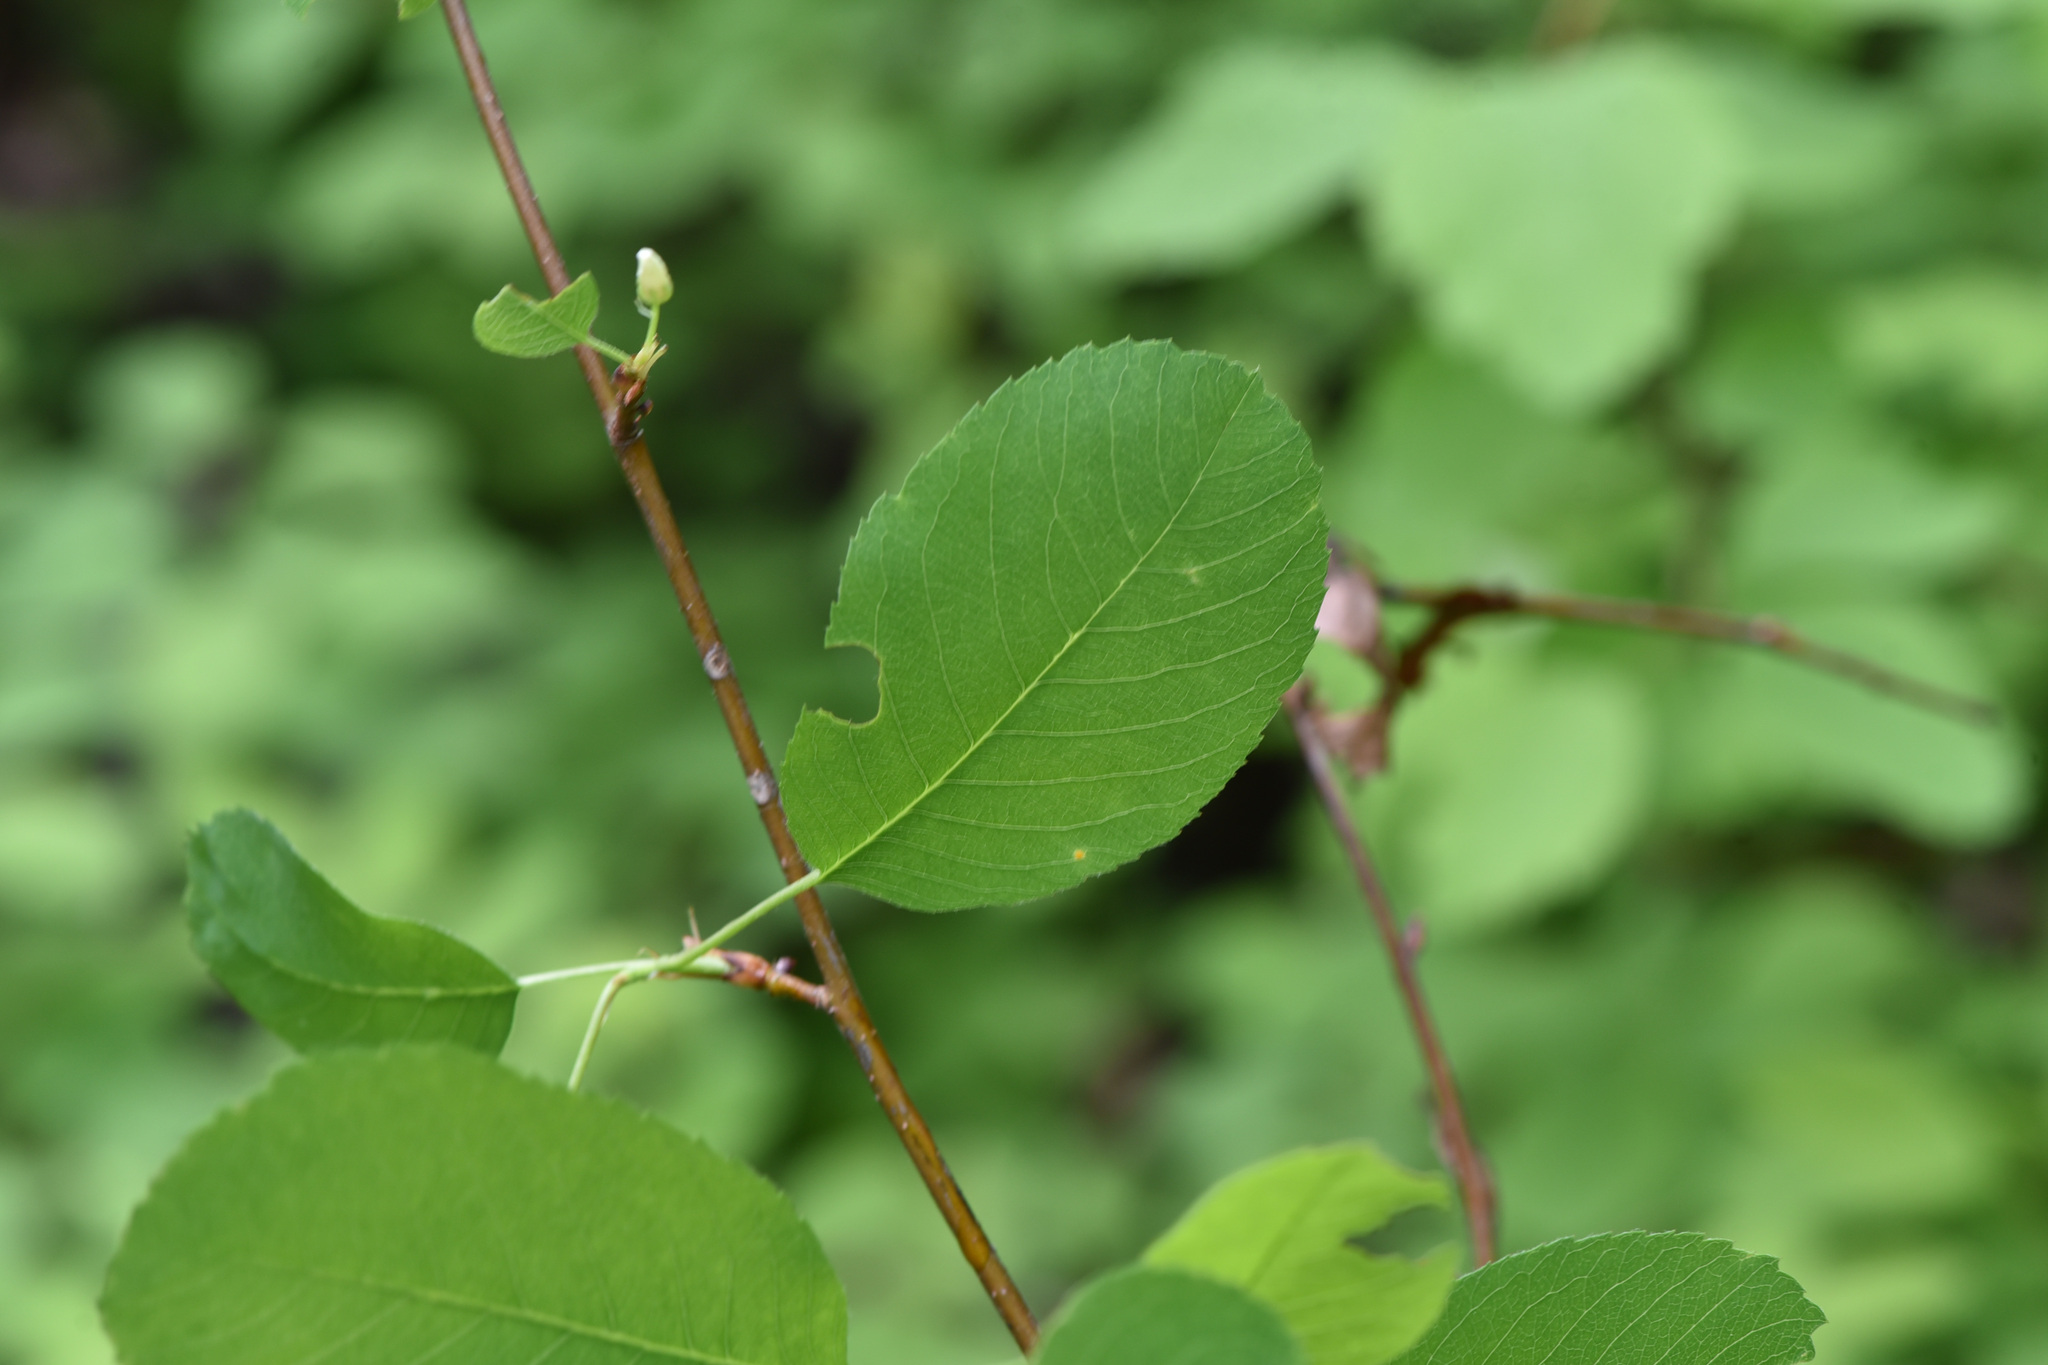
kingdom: Plantae
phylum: Tracheophyta
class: Magnoliopsida
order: Rosales
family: Rosaceae
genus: Amelanchier
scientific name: Amelanchier alnifolia
